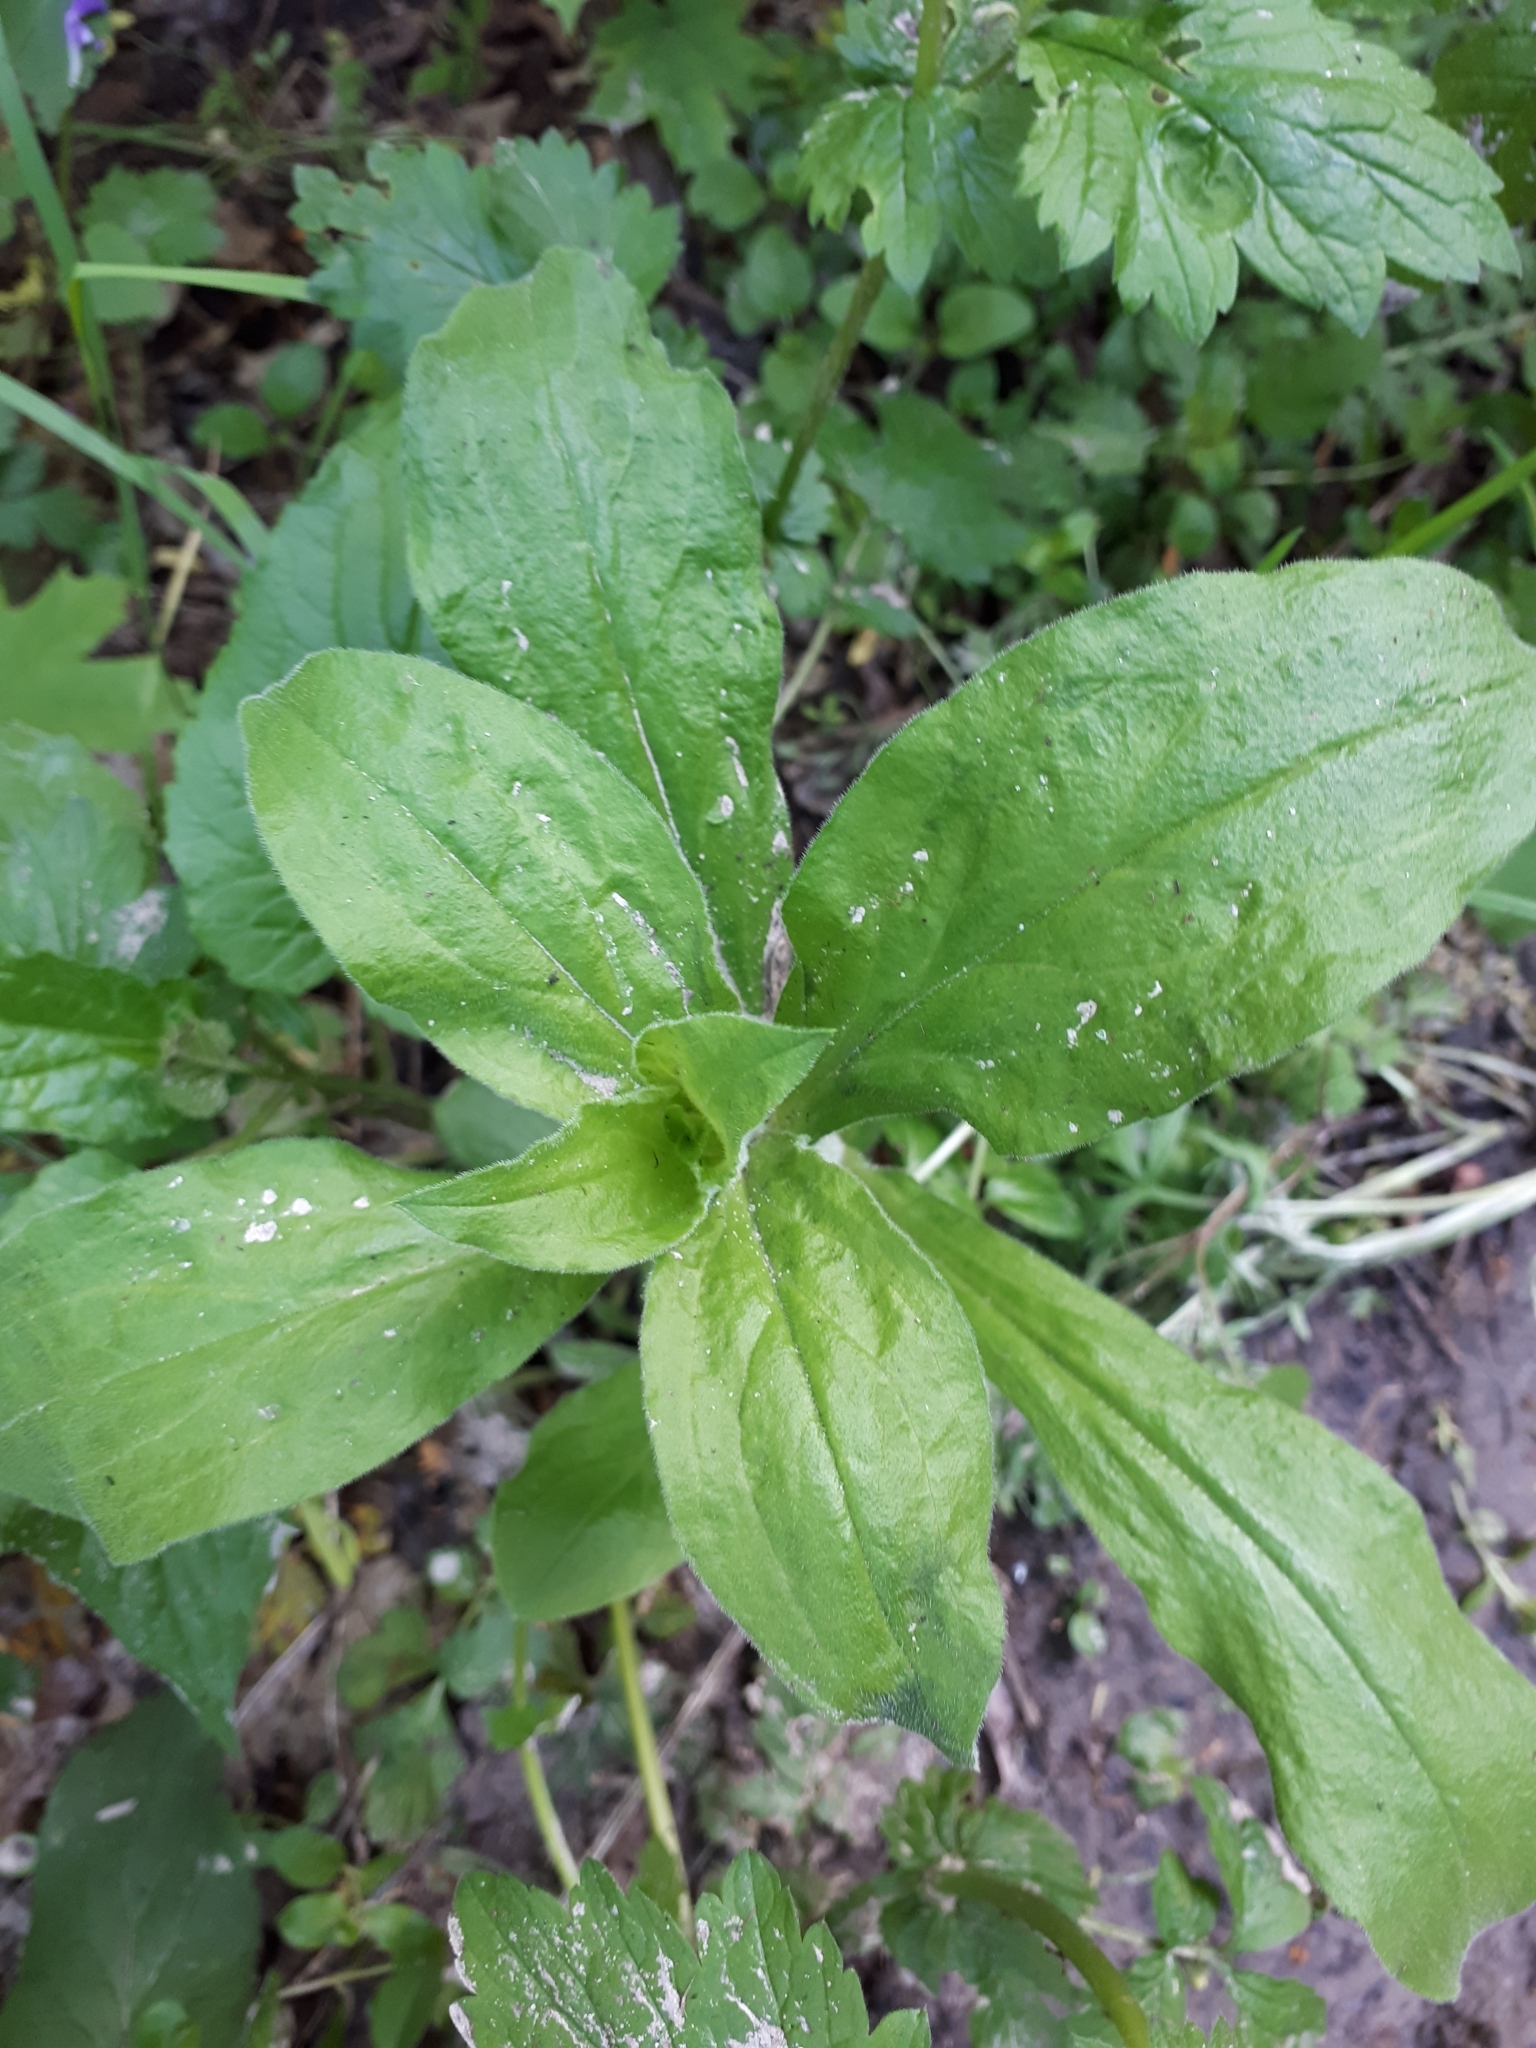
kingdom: Plantae
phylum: Tracheophyta
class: Magnoliopsida
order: Caryophyllales
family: Caryophyllaceae
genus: Silene
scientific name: Silene latifolia
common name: White campion
